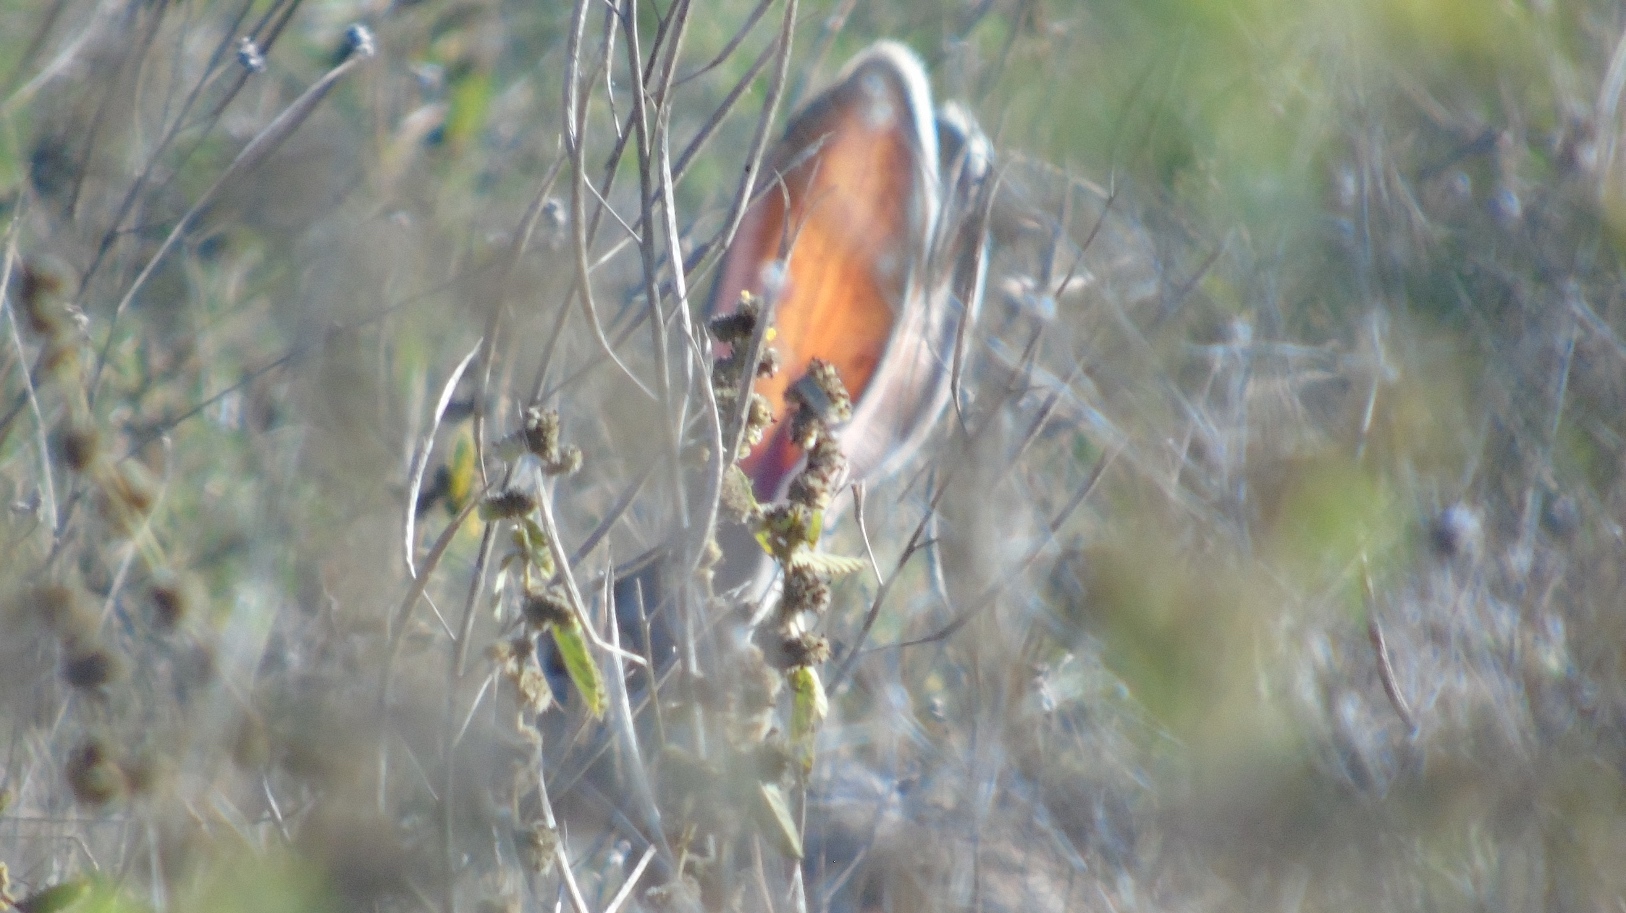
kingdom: Animalia
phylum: Chordata
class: Mammalia
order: Lagomorpha
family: Leporidae
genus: Lepus
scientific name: Lepus alleni
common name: Antelope jackrabbit
